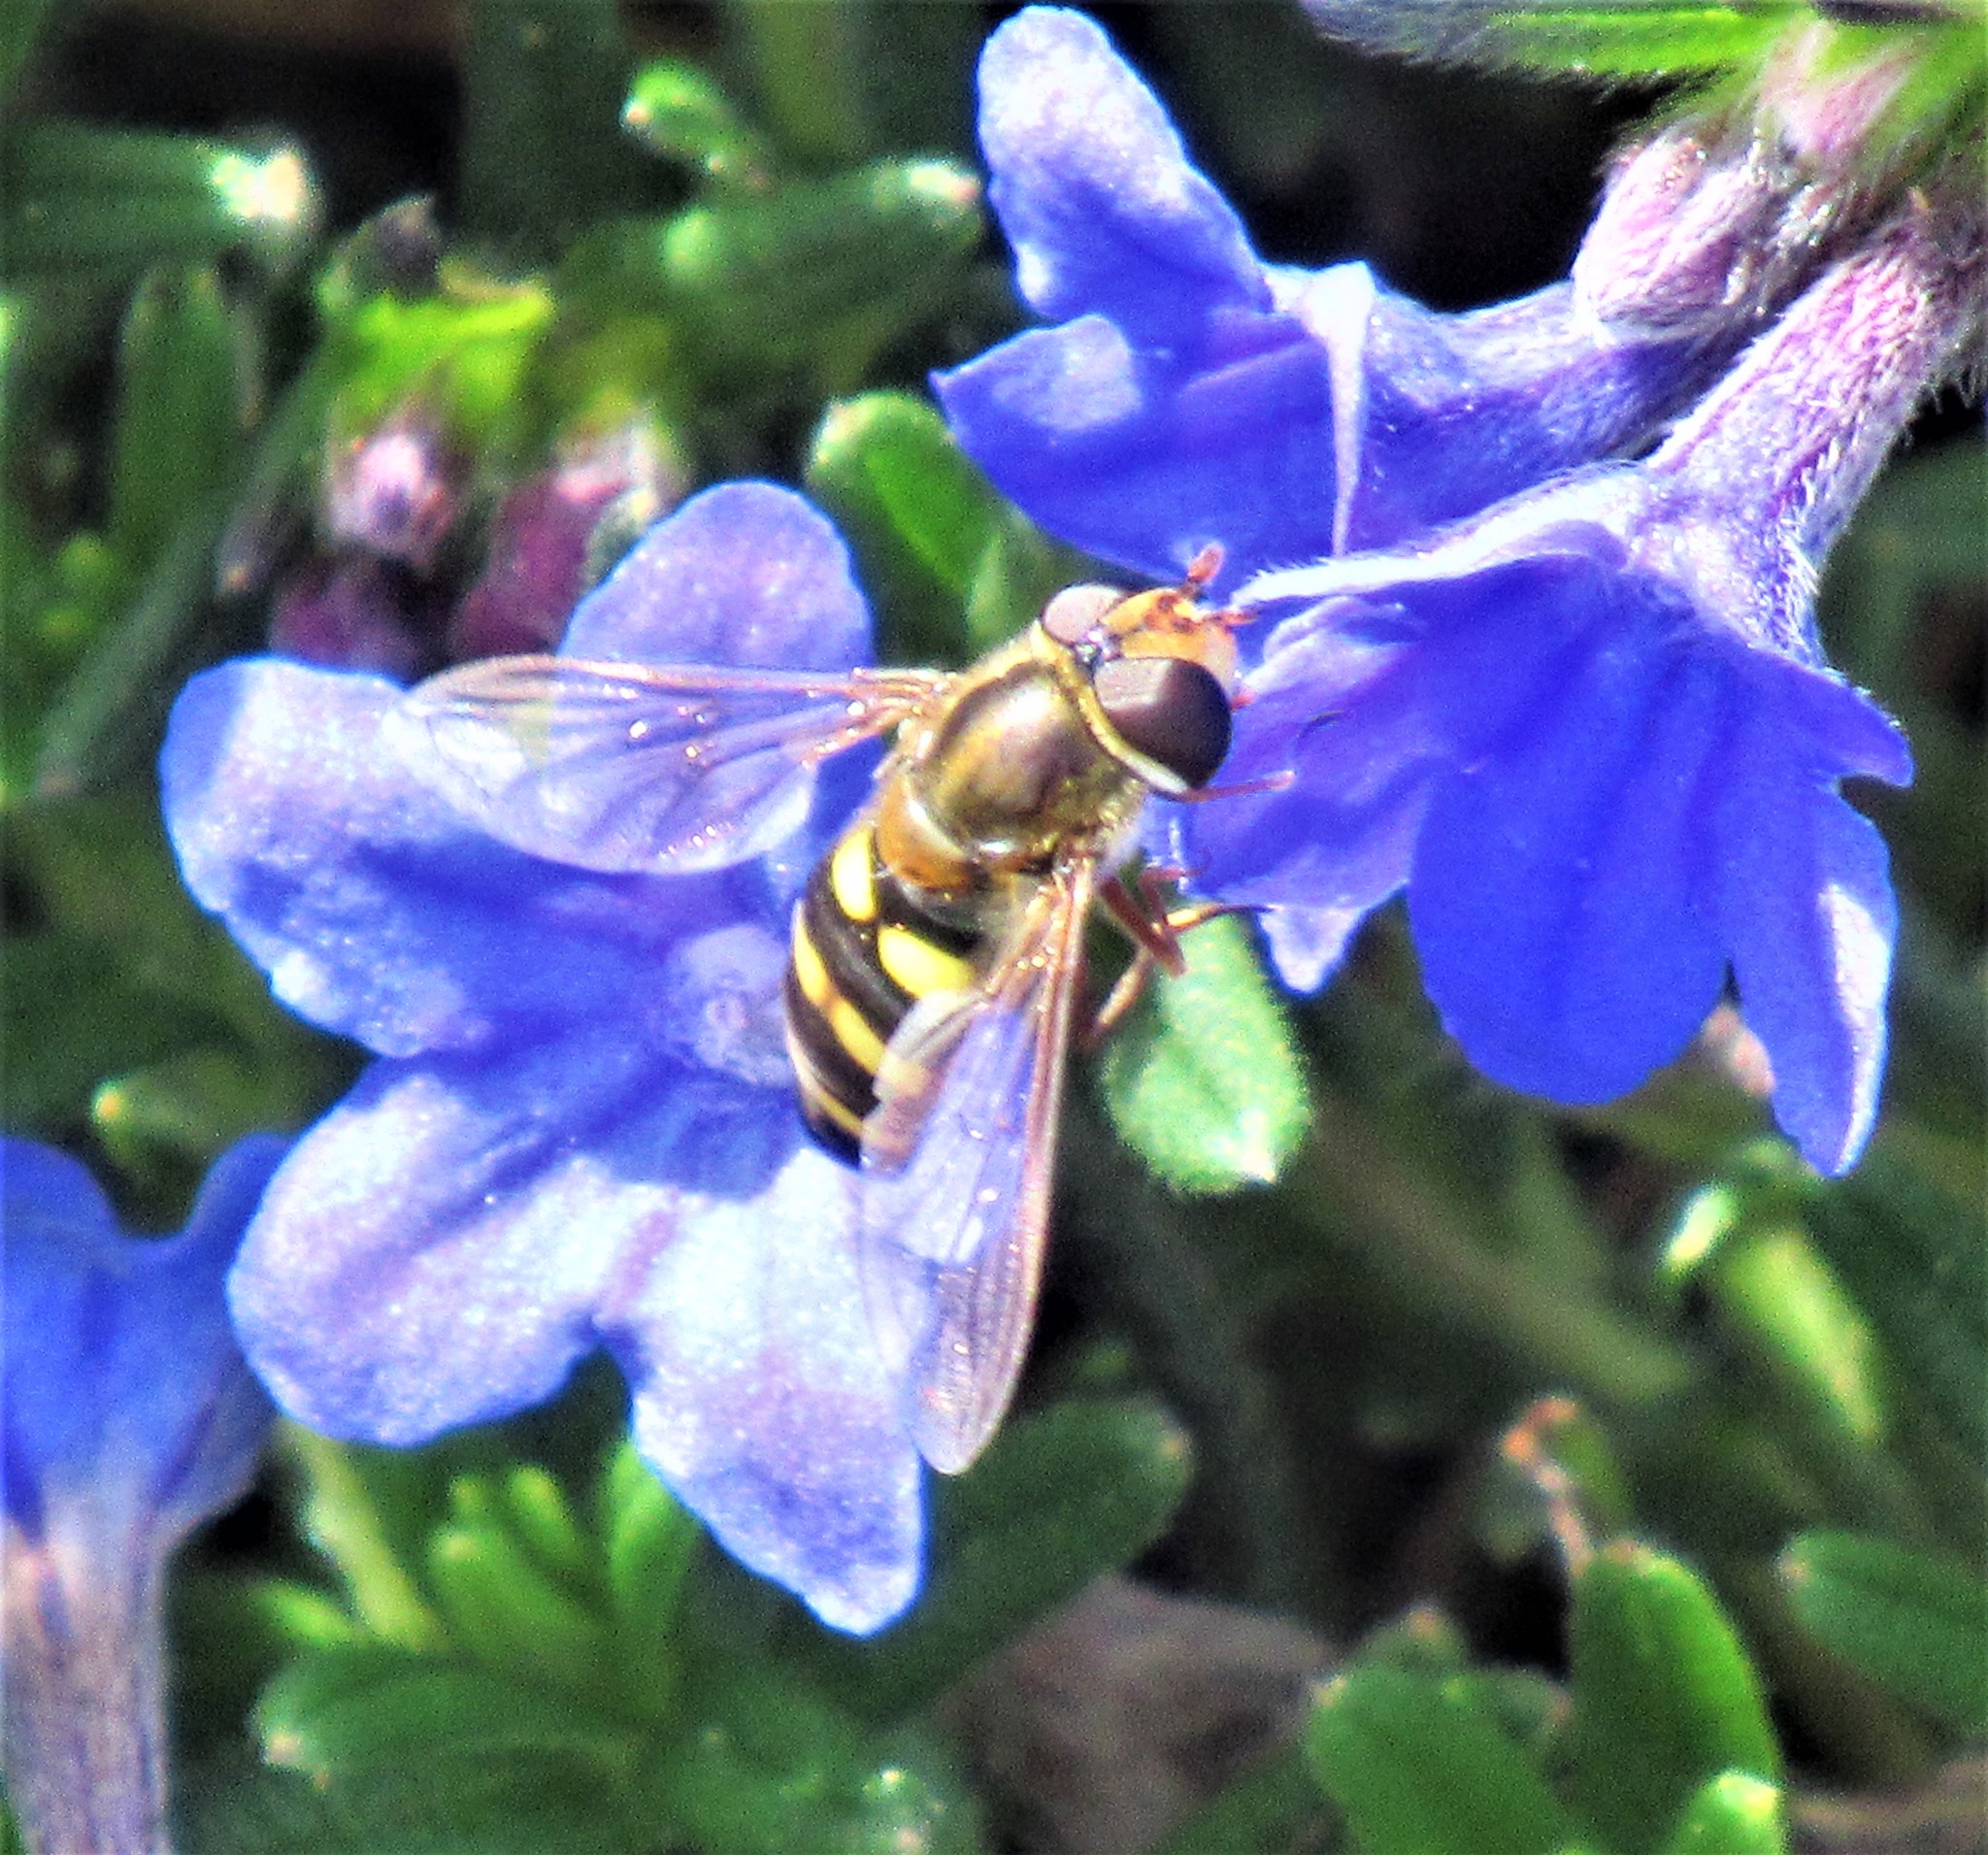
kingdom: Animalia
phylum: Arthropoda
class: Insecta
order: Diptera
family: Syrphidae
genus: Eupeodes
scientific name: Eupeodes fumipennis
